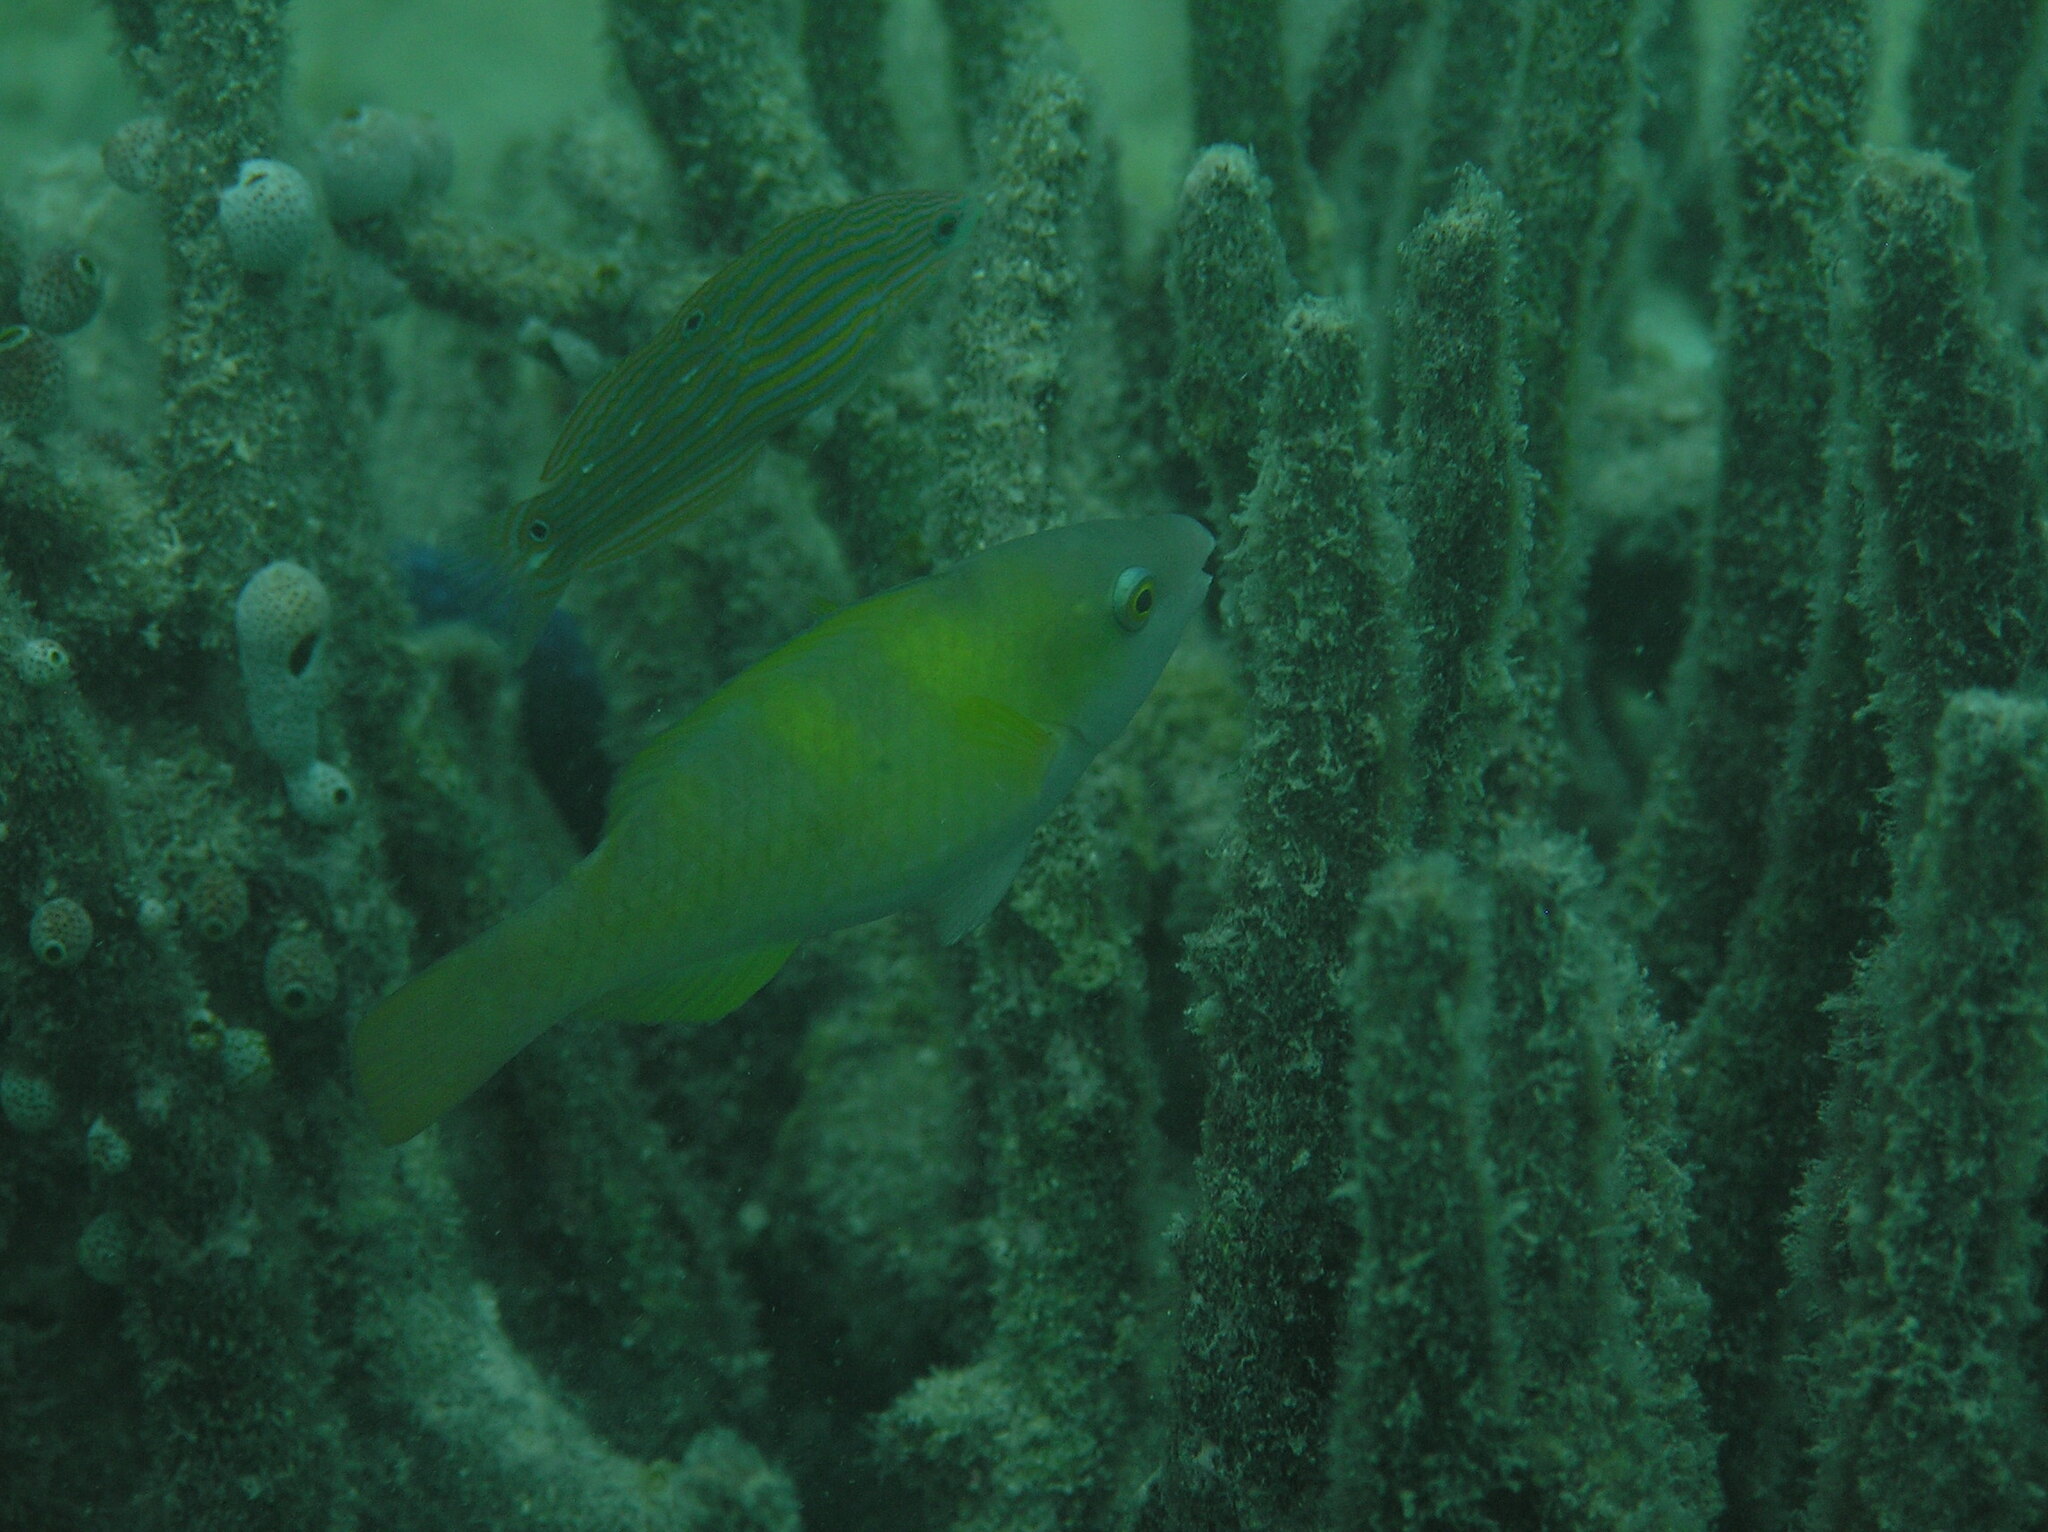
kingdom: Animalia
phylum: Chordata
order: Perciformes
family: Labridae
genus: Halichoeres
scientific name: Halichoeres leucurus
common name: Grey-head wrasse
